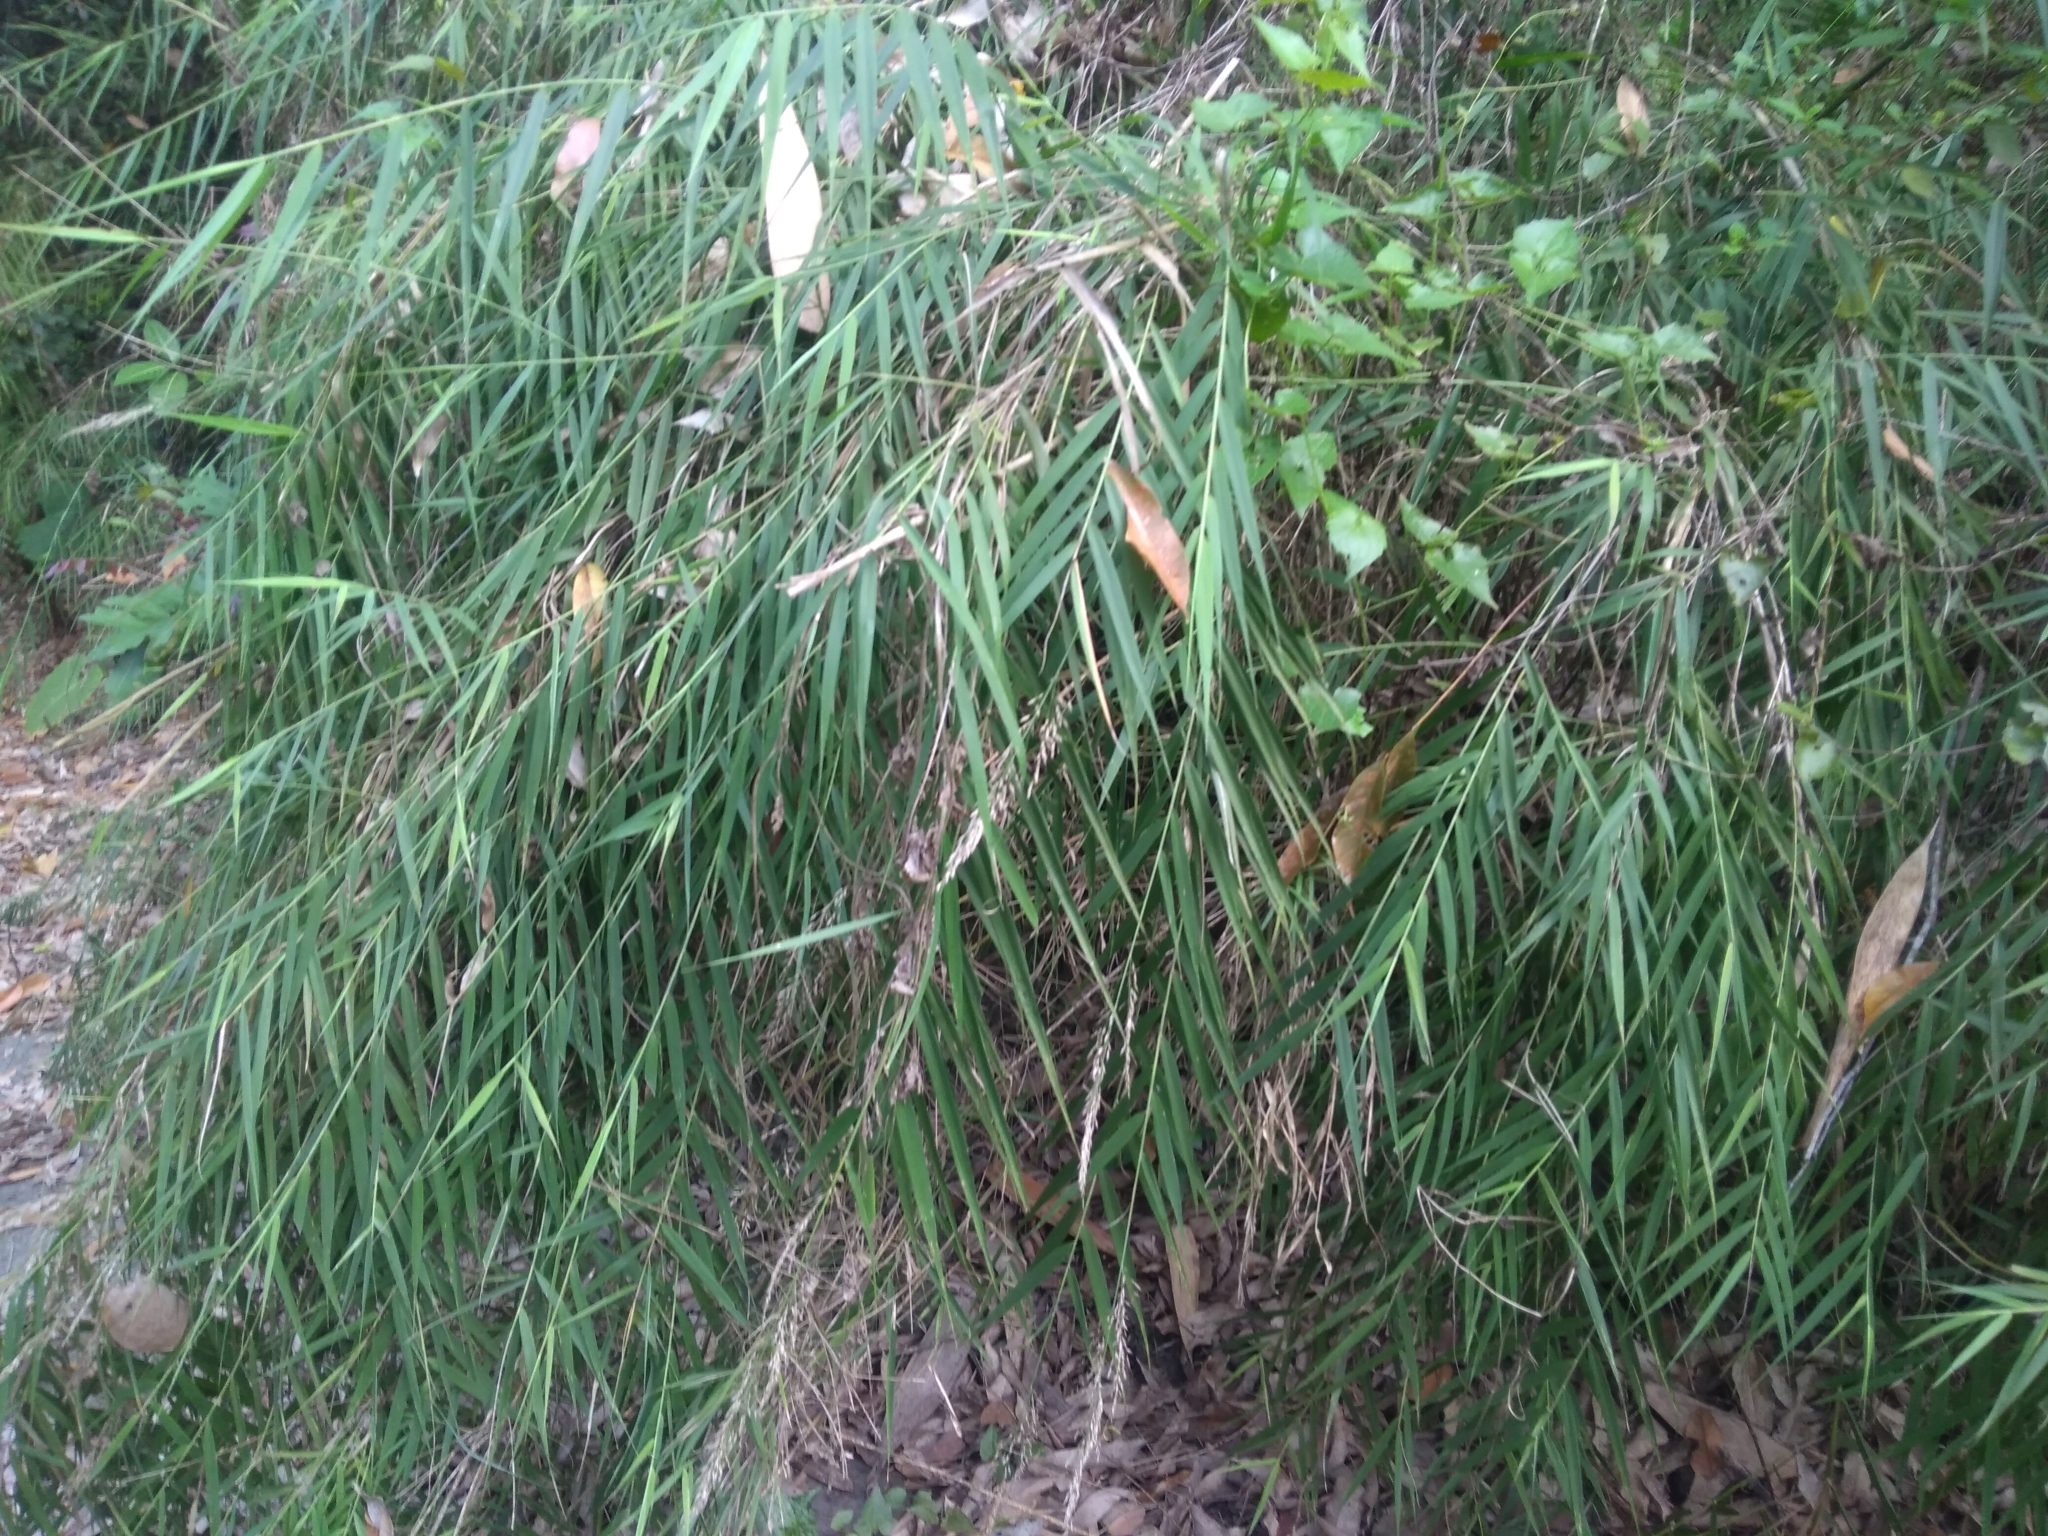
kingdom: Plantae
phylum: Tracheophyta
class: Liliopsida
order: Poales
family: Poaceae
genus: Arundo
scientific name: Arundo formosana
